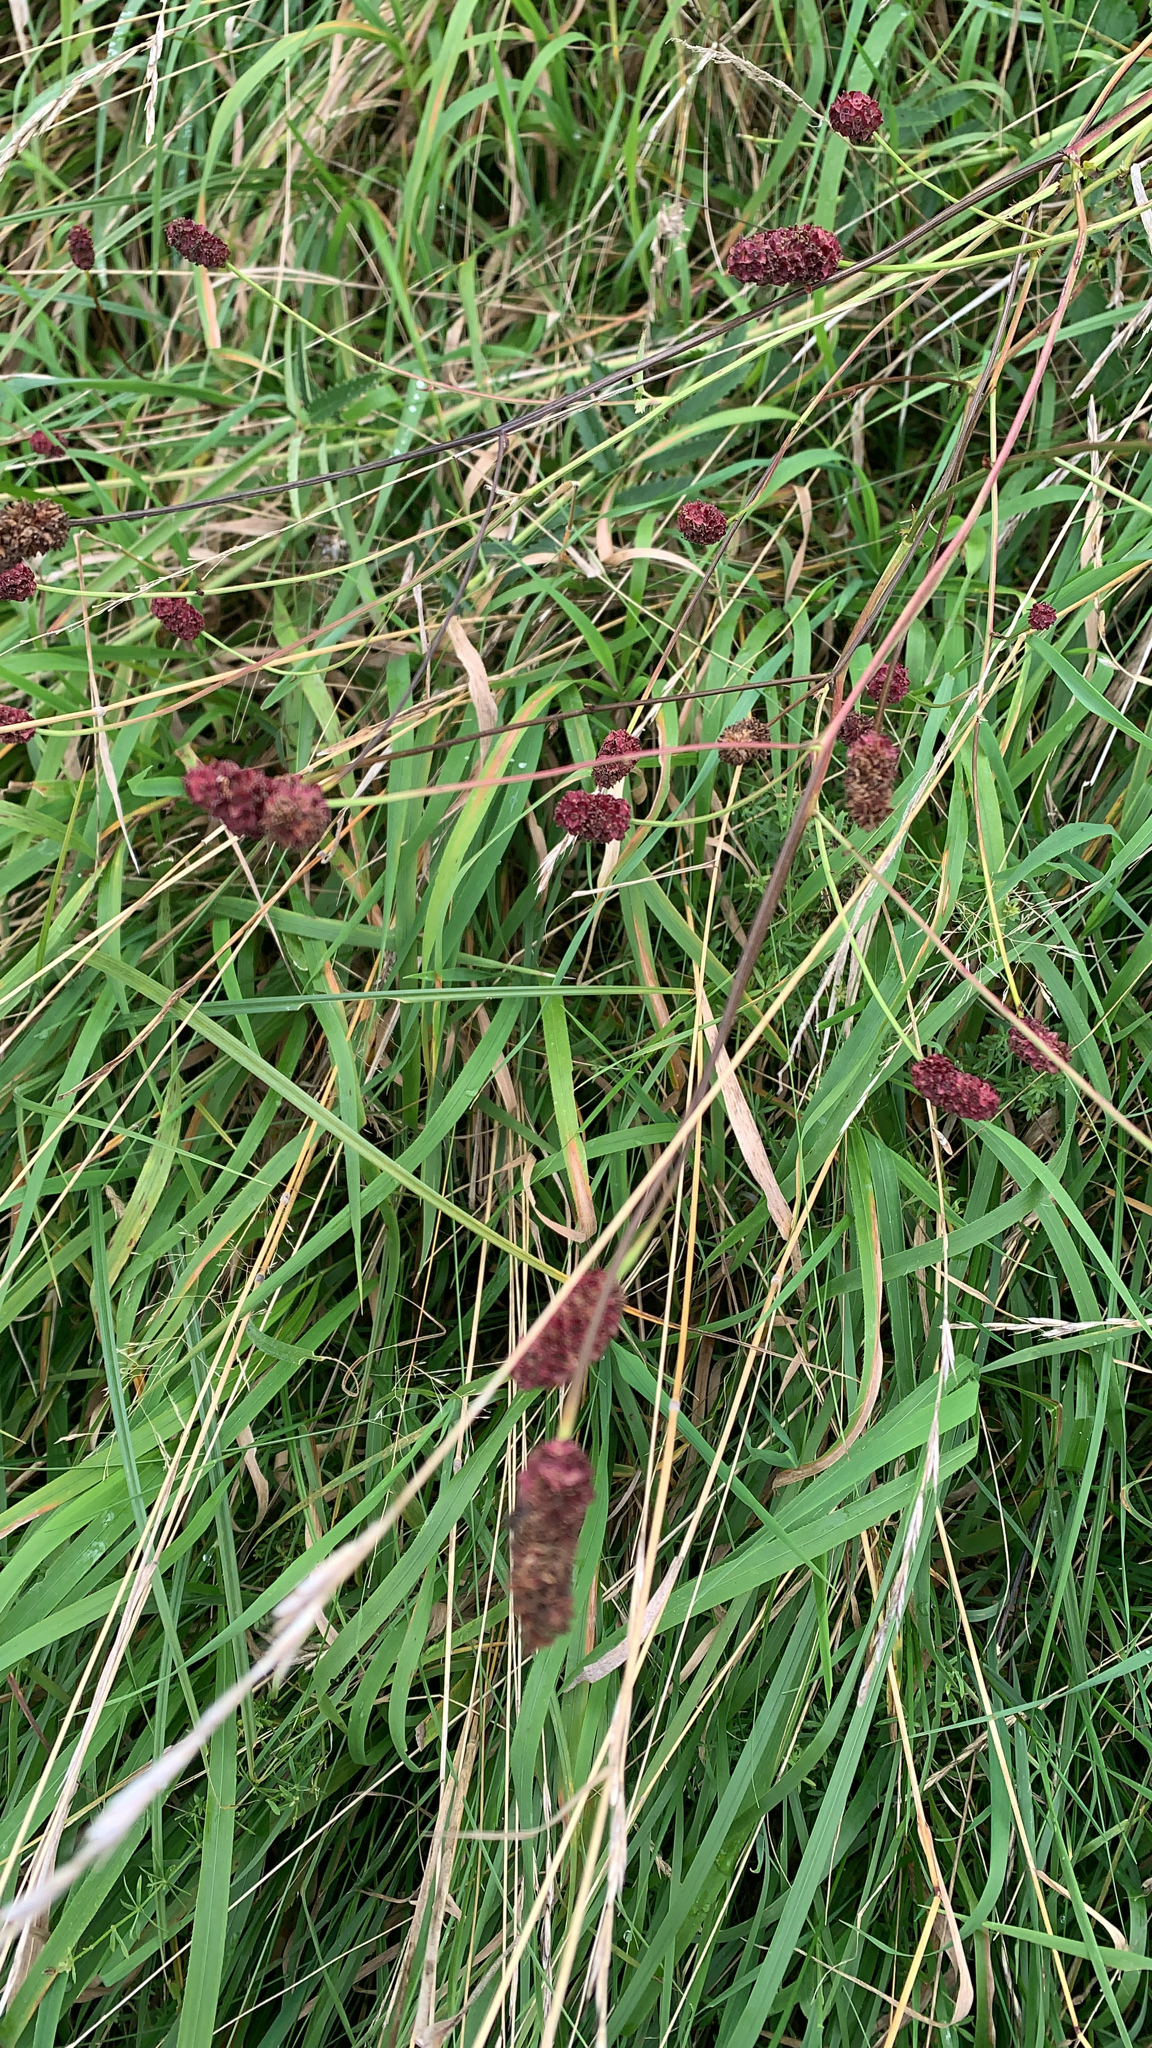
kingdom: Plantae
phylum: Tracheophyta
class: Magnoliopsida
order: Rosales
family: Rosaceae
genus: Sanguisorba
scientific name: Sanguisorba officinalis
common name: Great burnet
